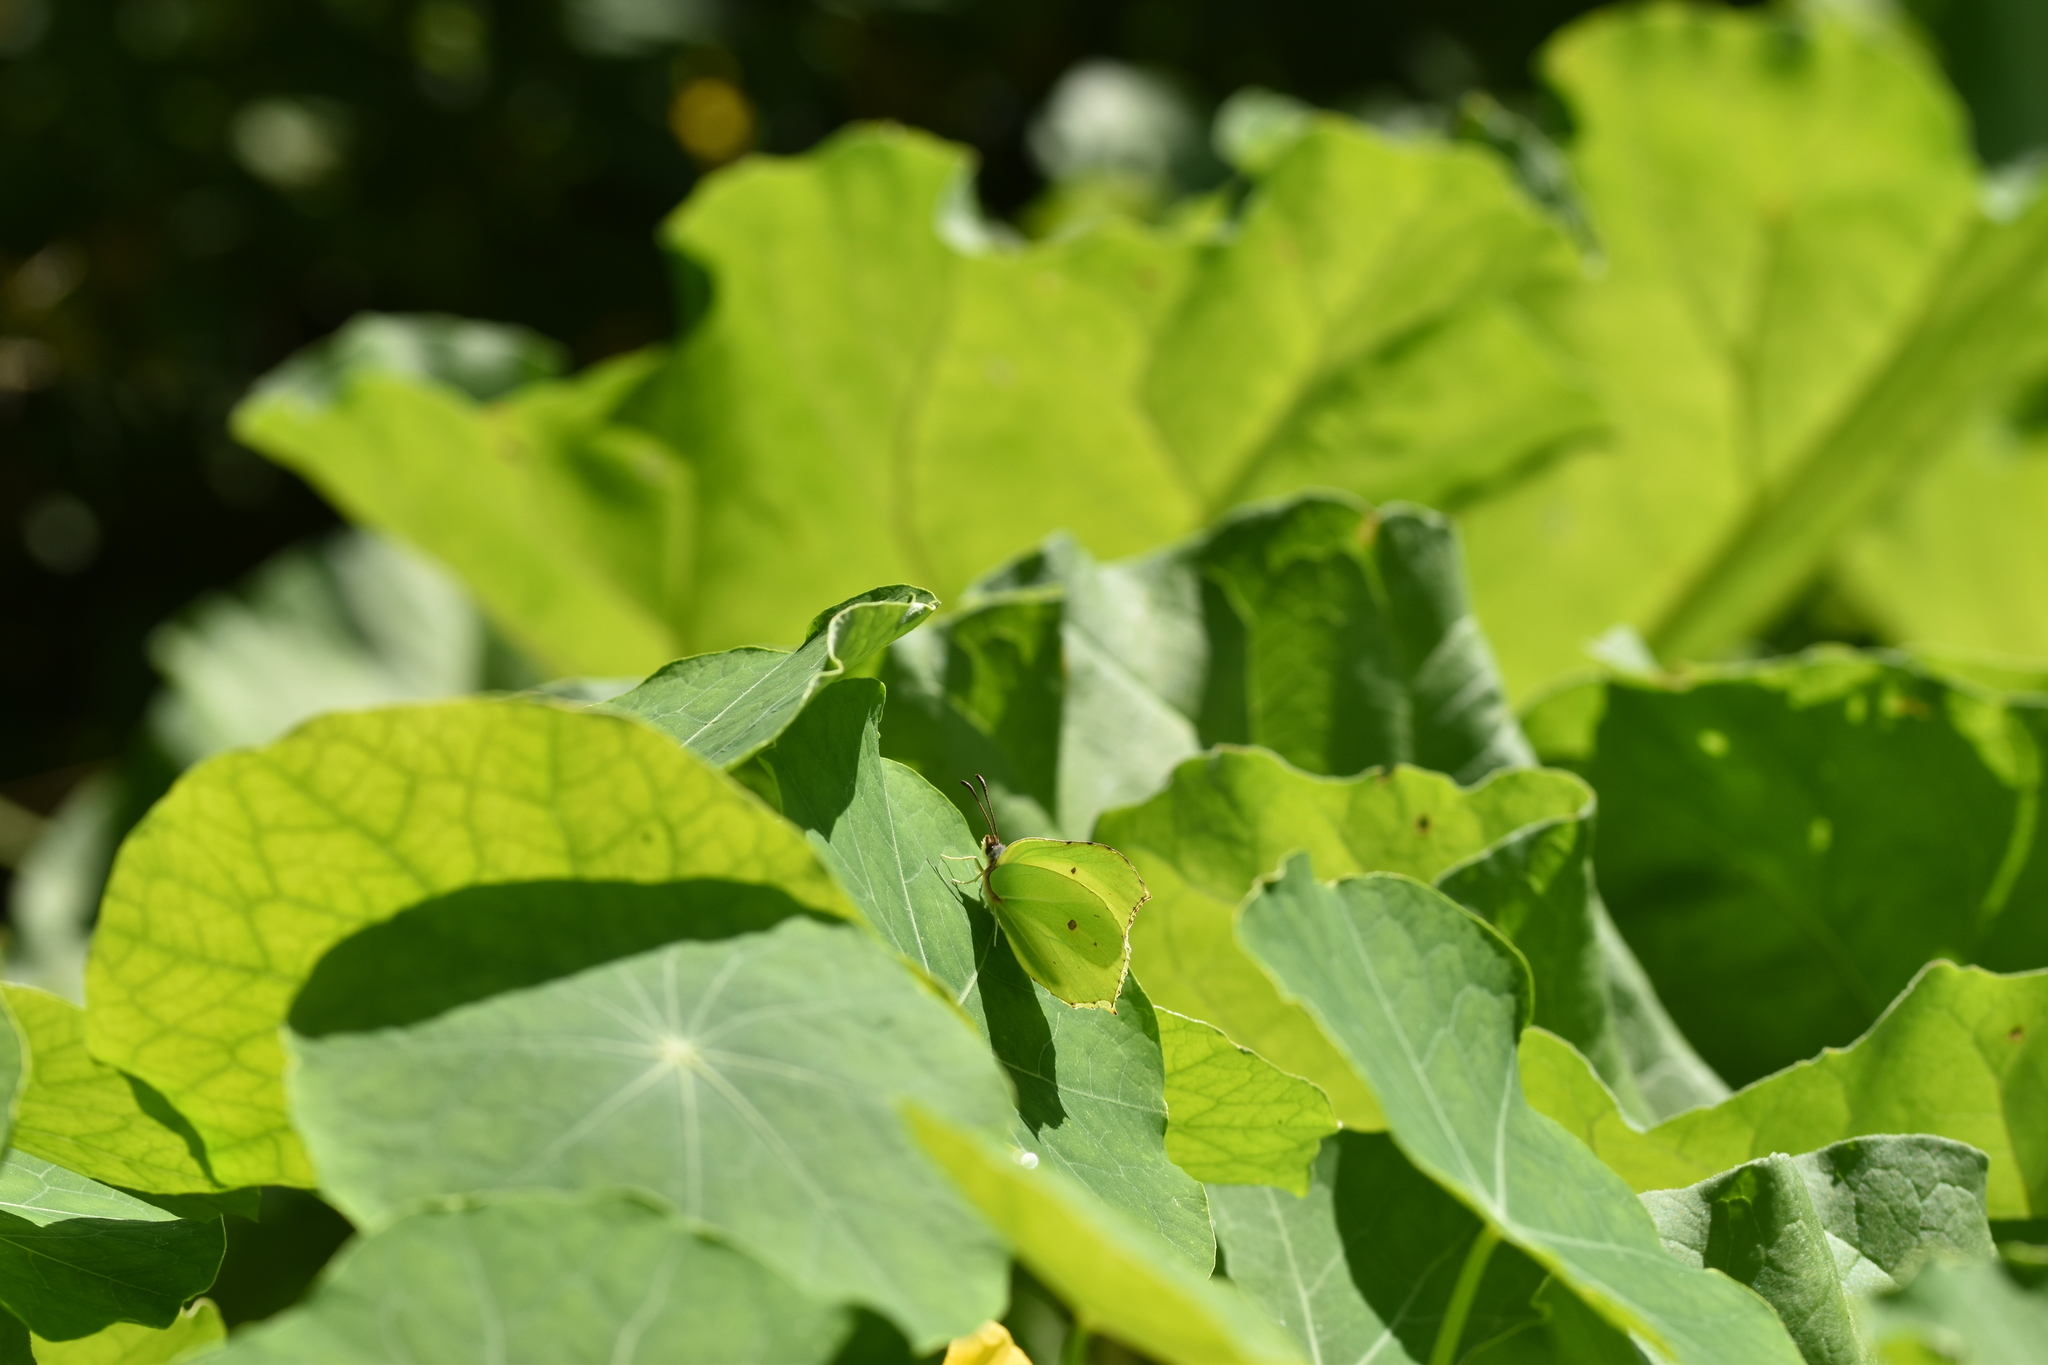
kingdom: Animalia
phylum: Arthropoda
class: Insecta
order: Lepidoptera
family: Pieridae
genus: Gonepteryx
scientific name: Gonepteryx rhamni
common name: Brimstone
